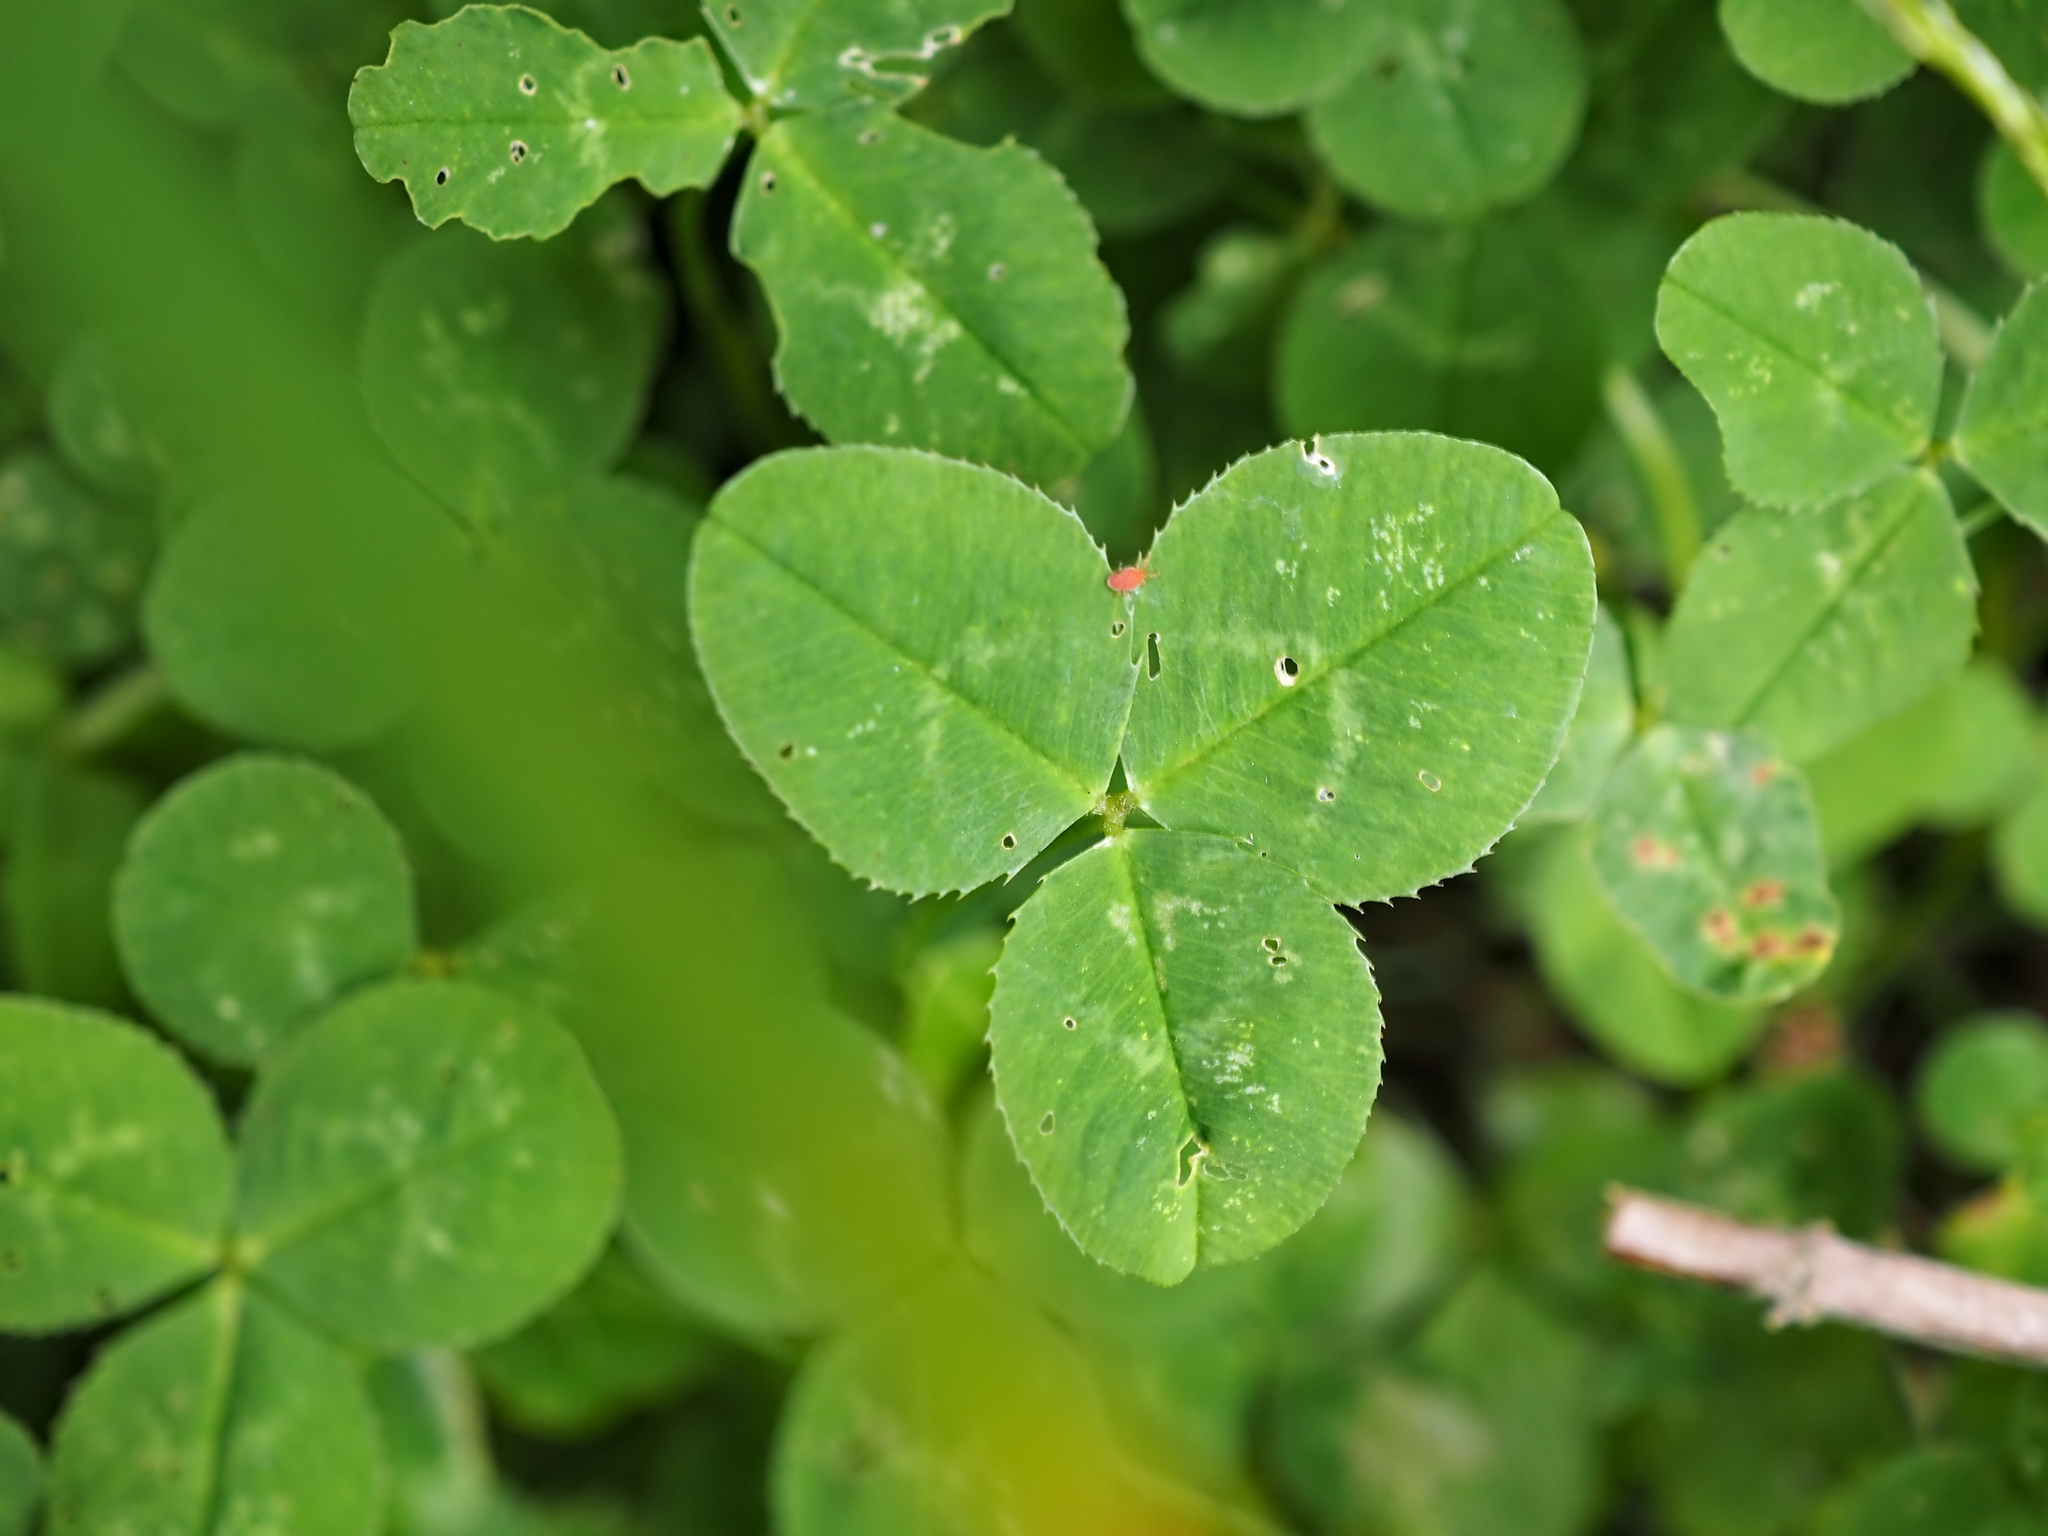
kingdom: Plantae
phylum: Tracheophyta
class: Magnoliopsida
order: Fabales
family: Fabaceae
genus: Trifolium
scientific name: Trifolium repens
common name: White clover
